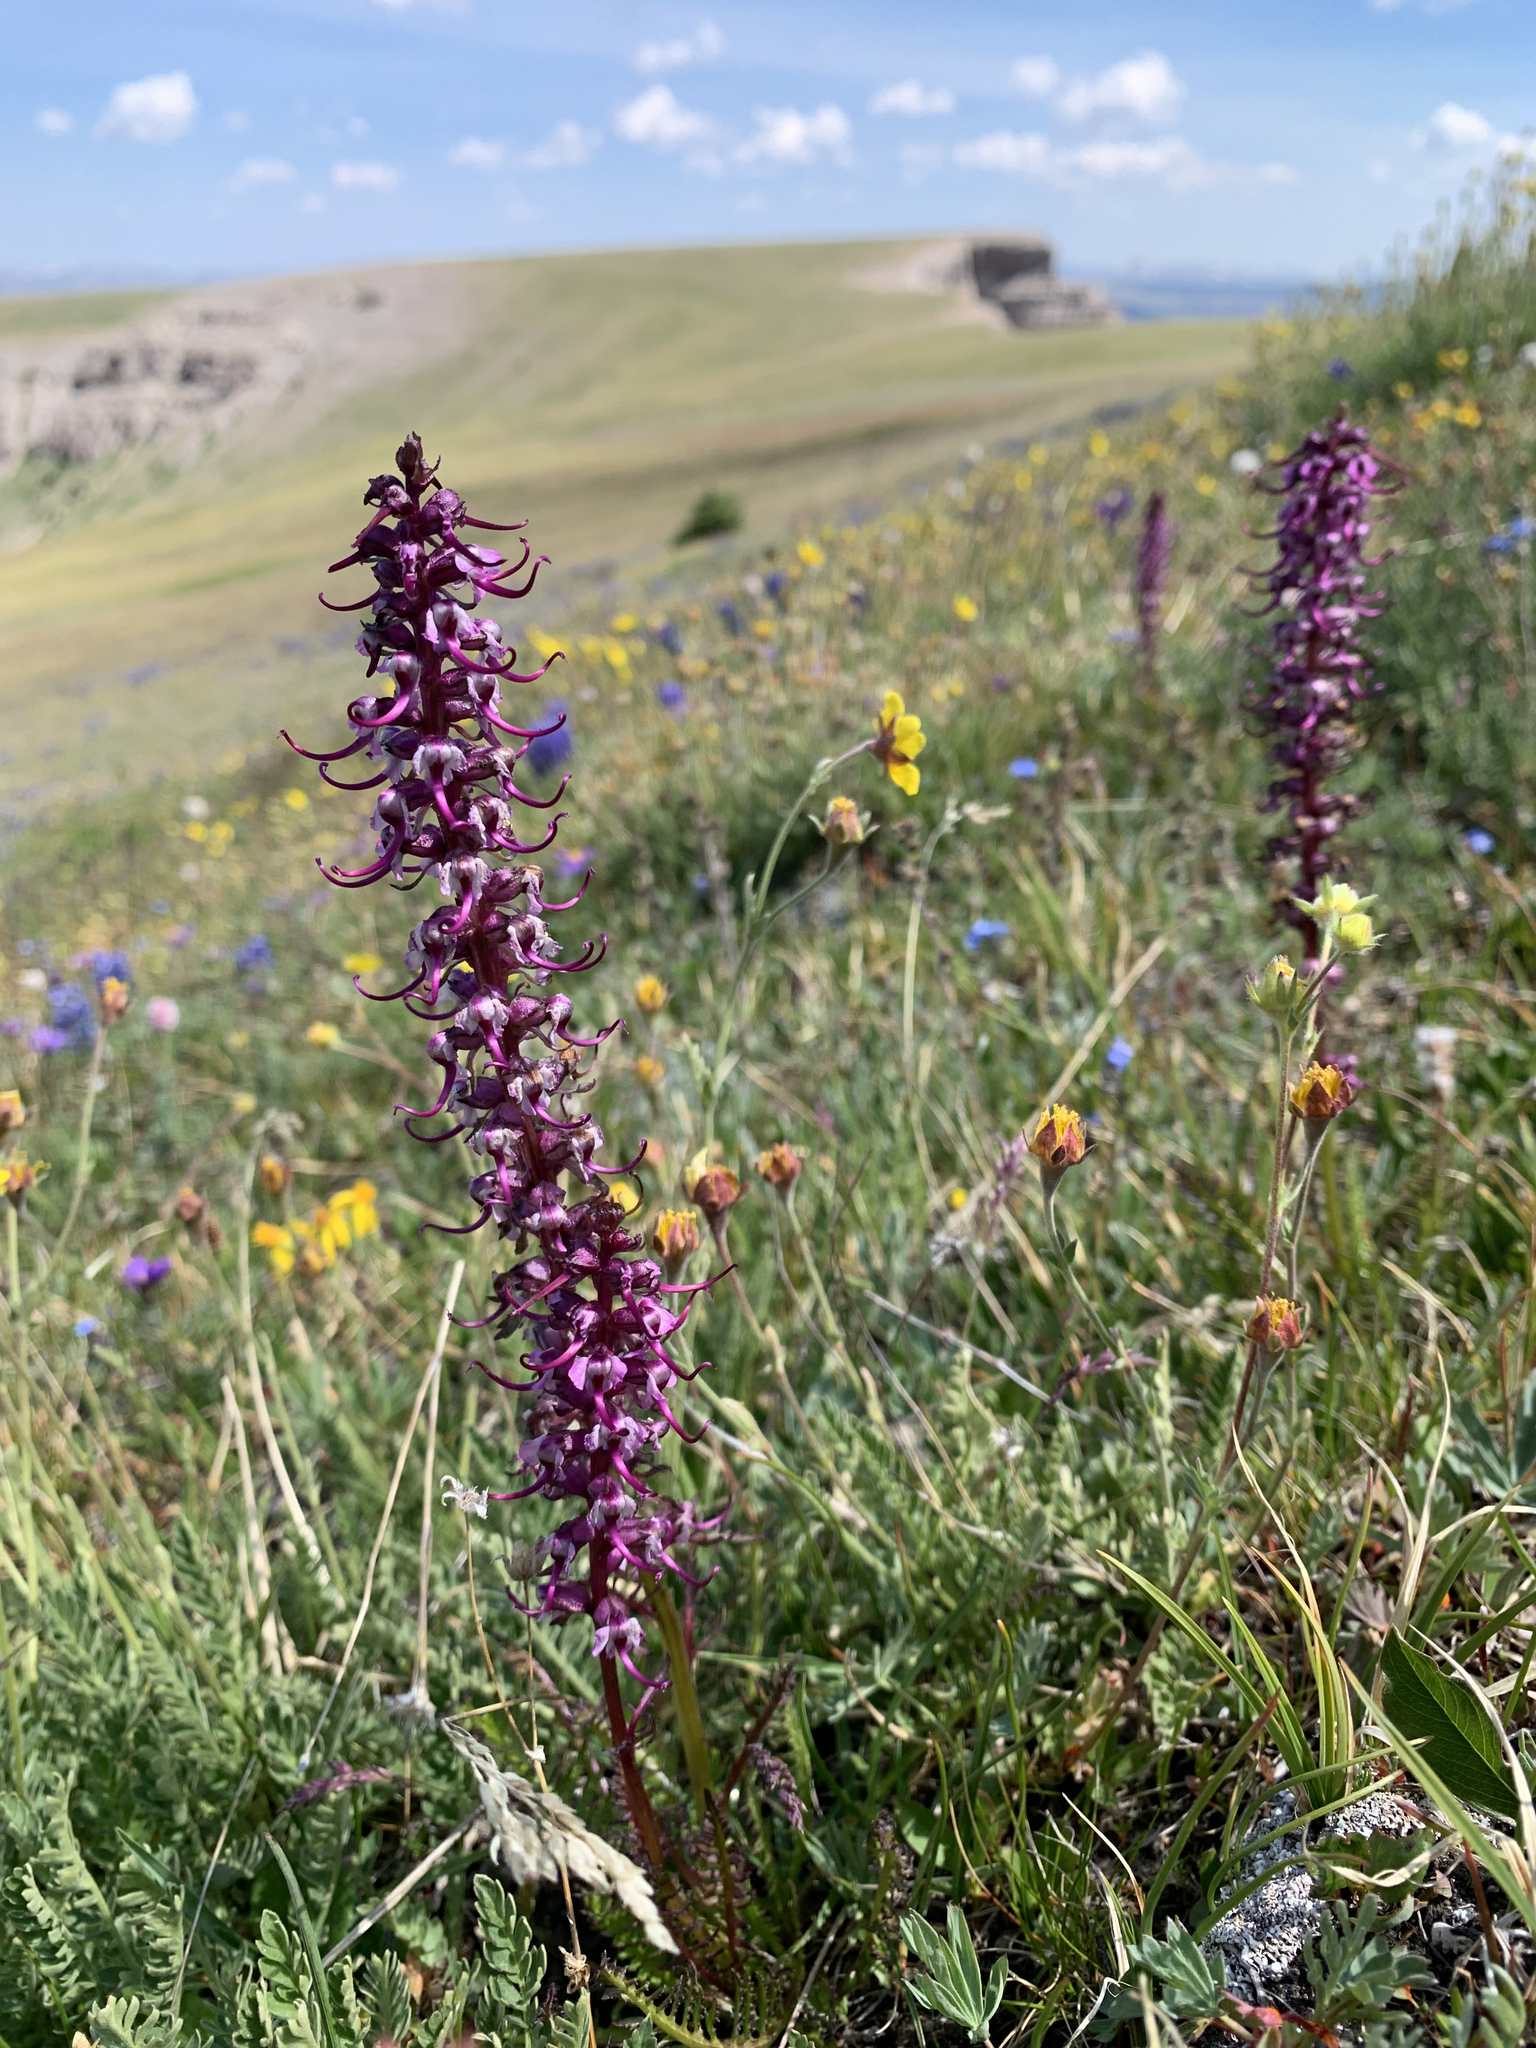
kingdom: Plantae
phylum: Tracheophyta
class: Magnoliopsida
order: Lamiales
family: Orobanchaceae
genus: Pedicularis
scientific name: Pedicularis groenlandica
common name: Elephant's-head
